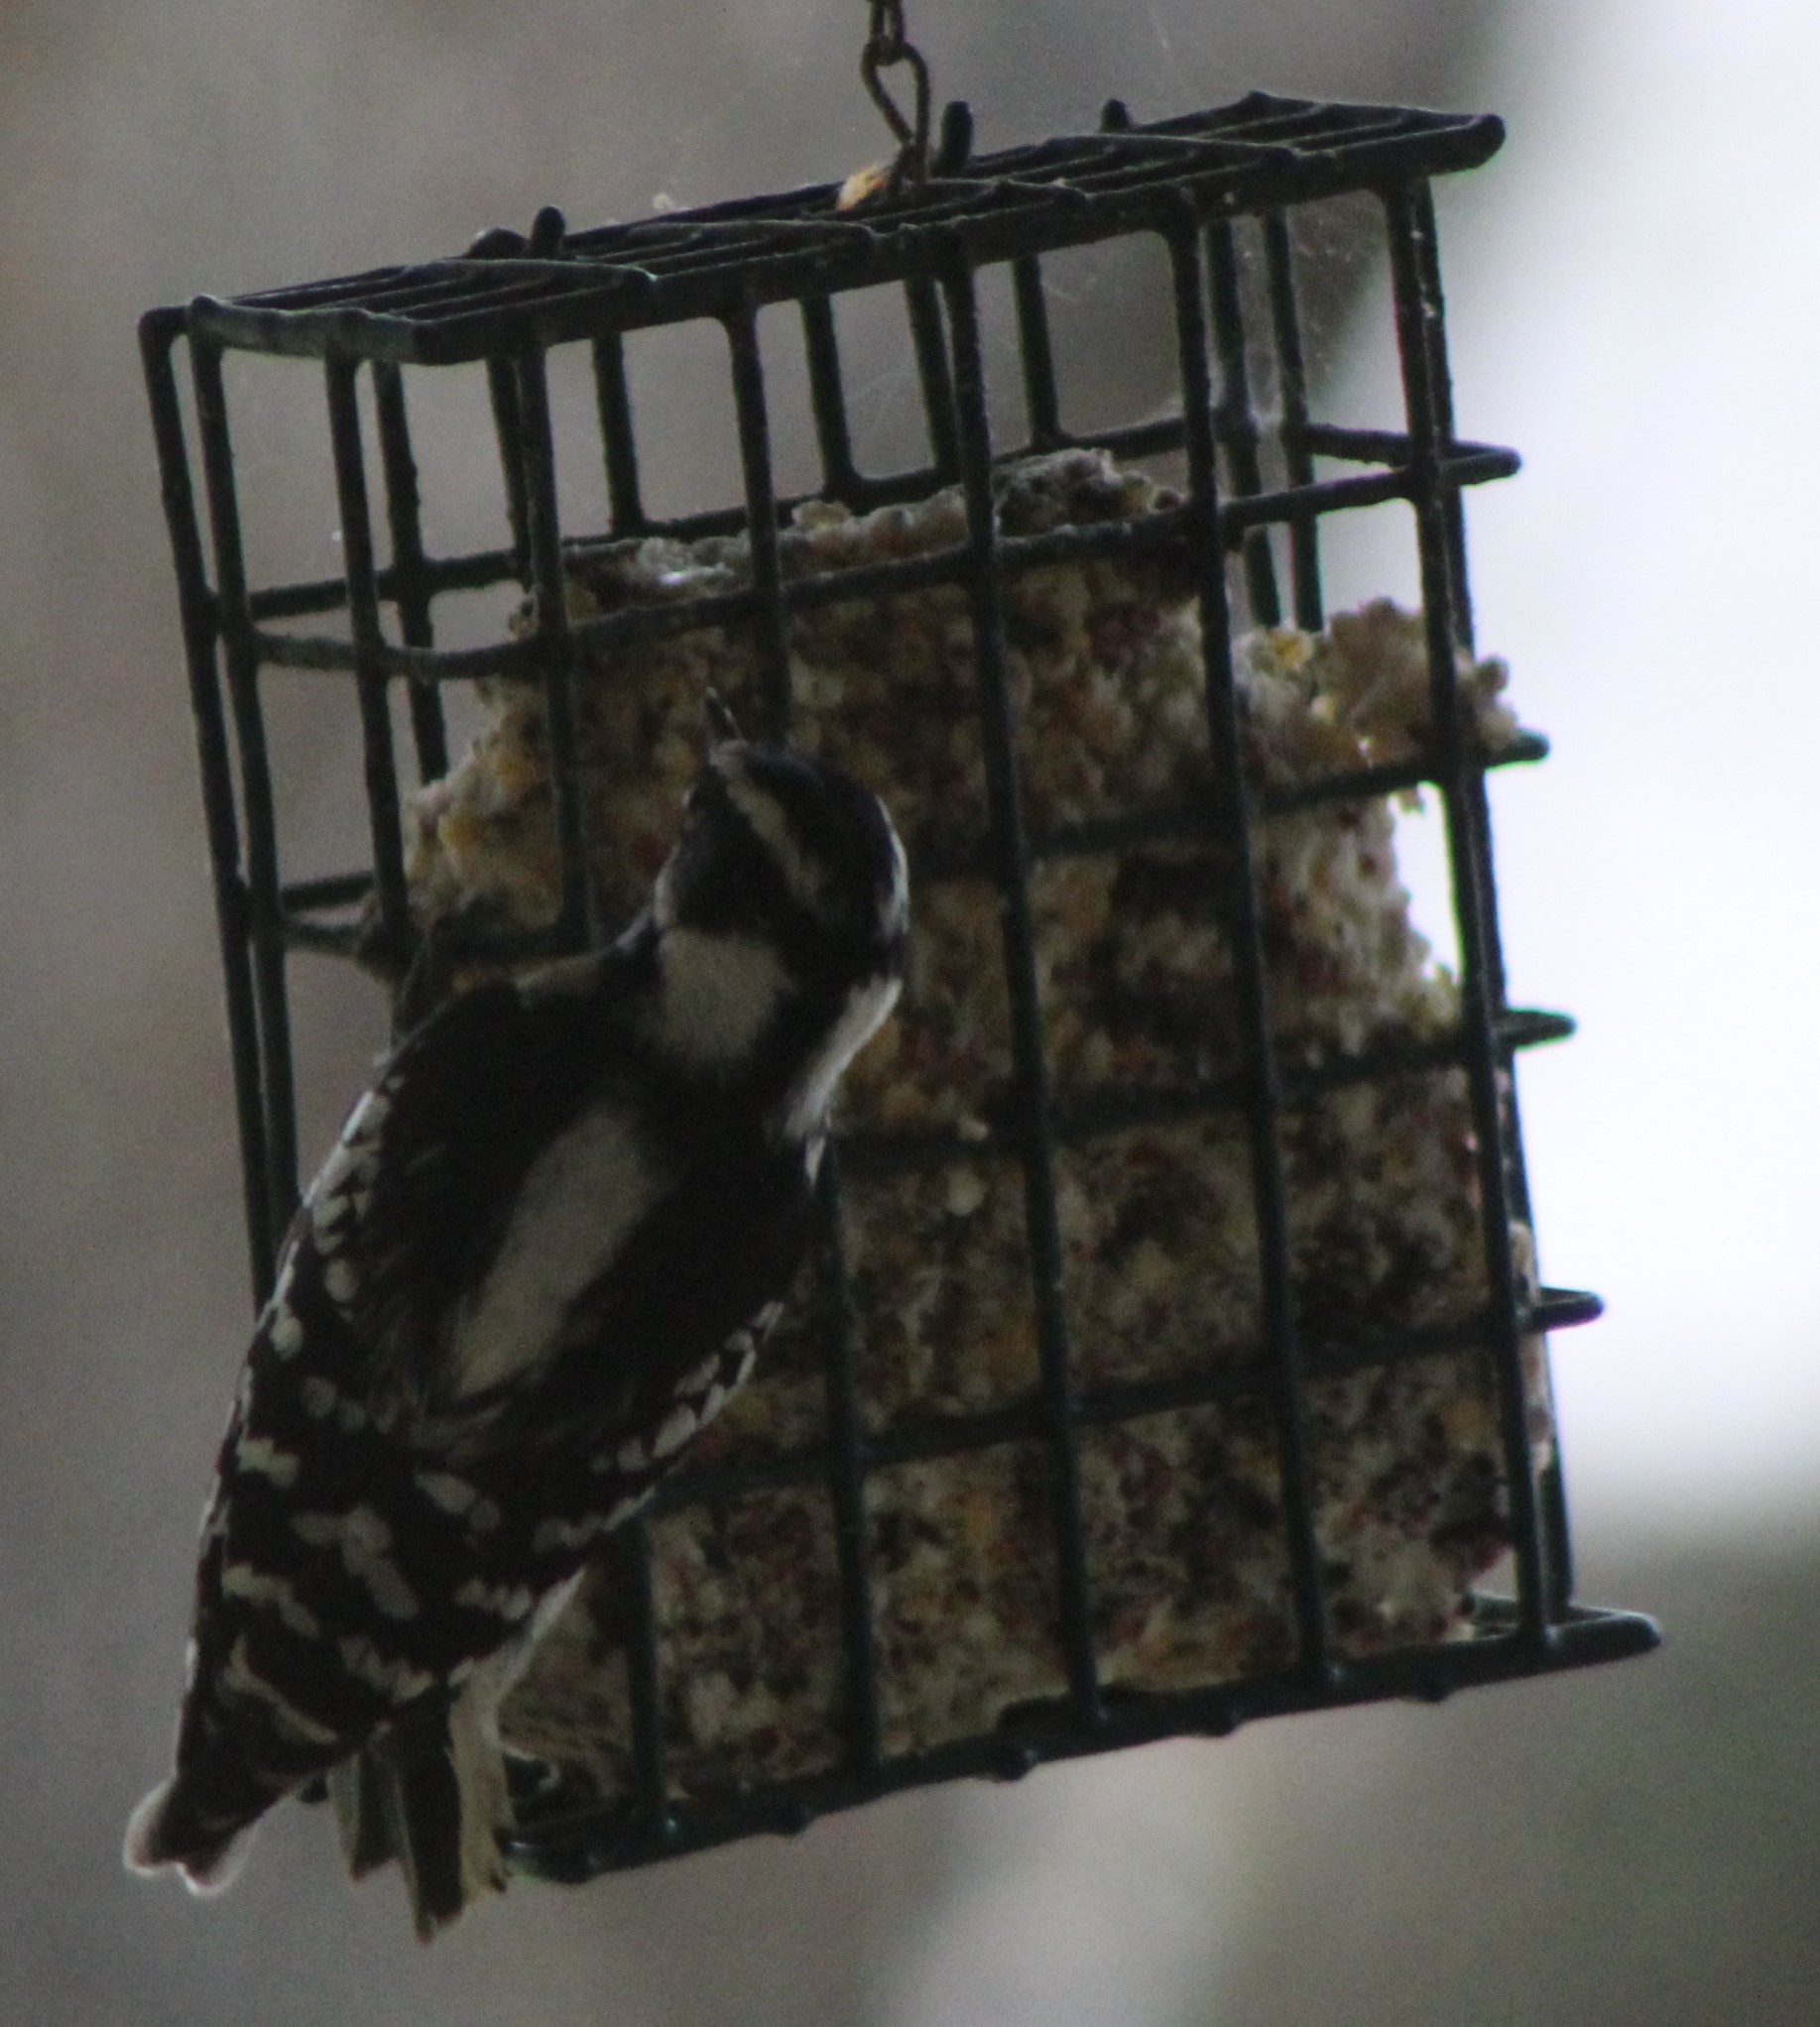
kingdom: Animalia
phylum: Chordata
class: Aves
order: Piciformes
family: Picidae
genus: Dryobates
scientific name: Dryobates pubescens
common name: Downy woodpecker
